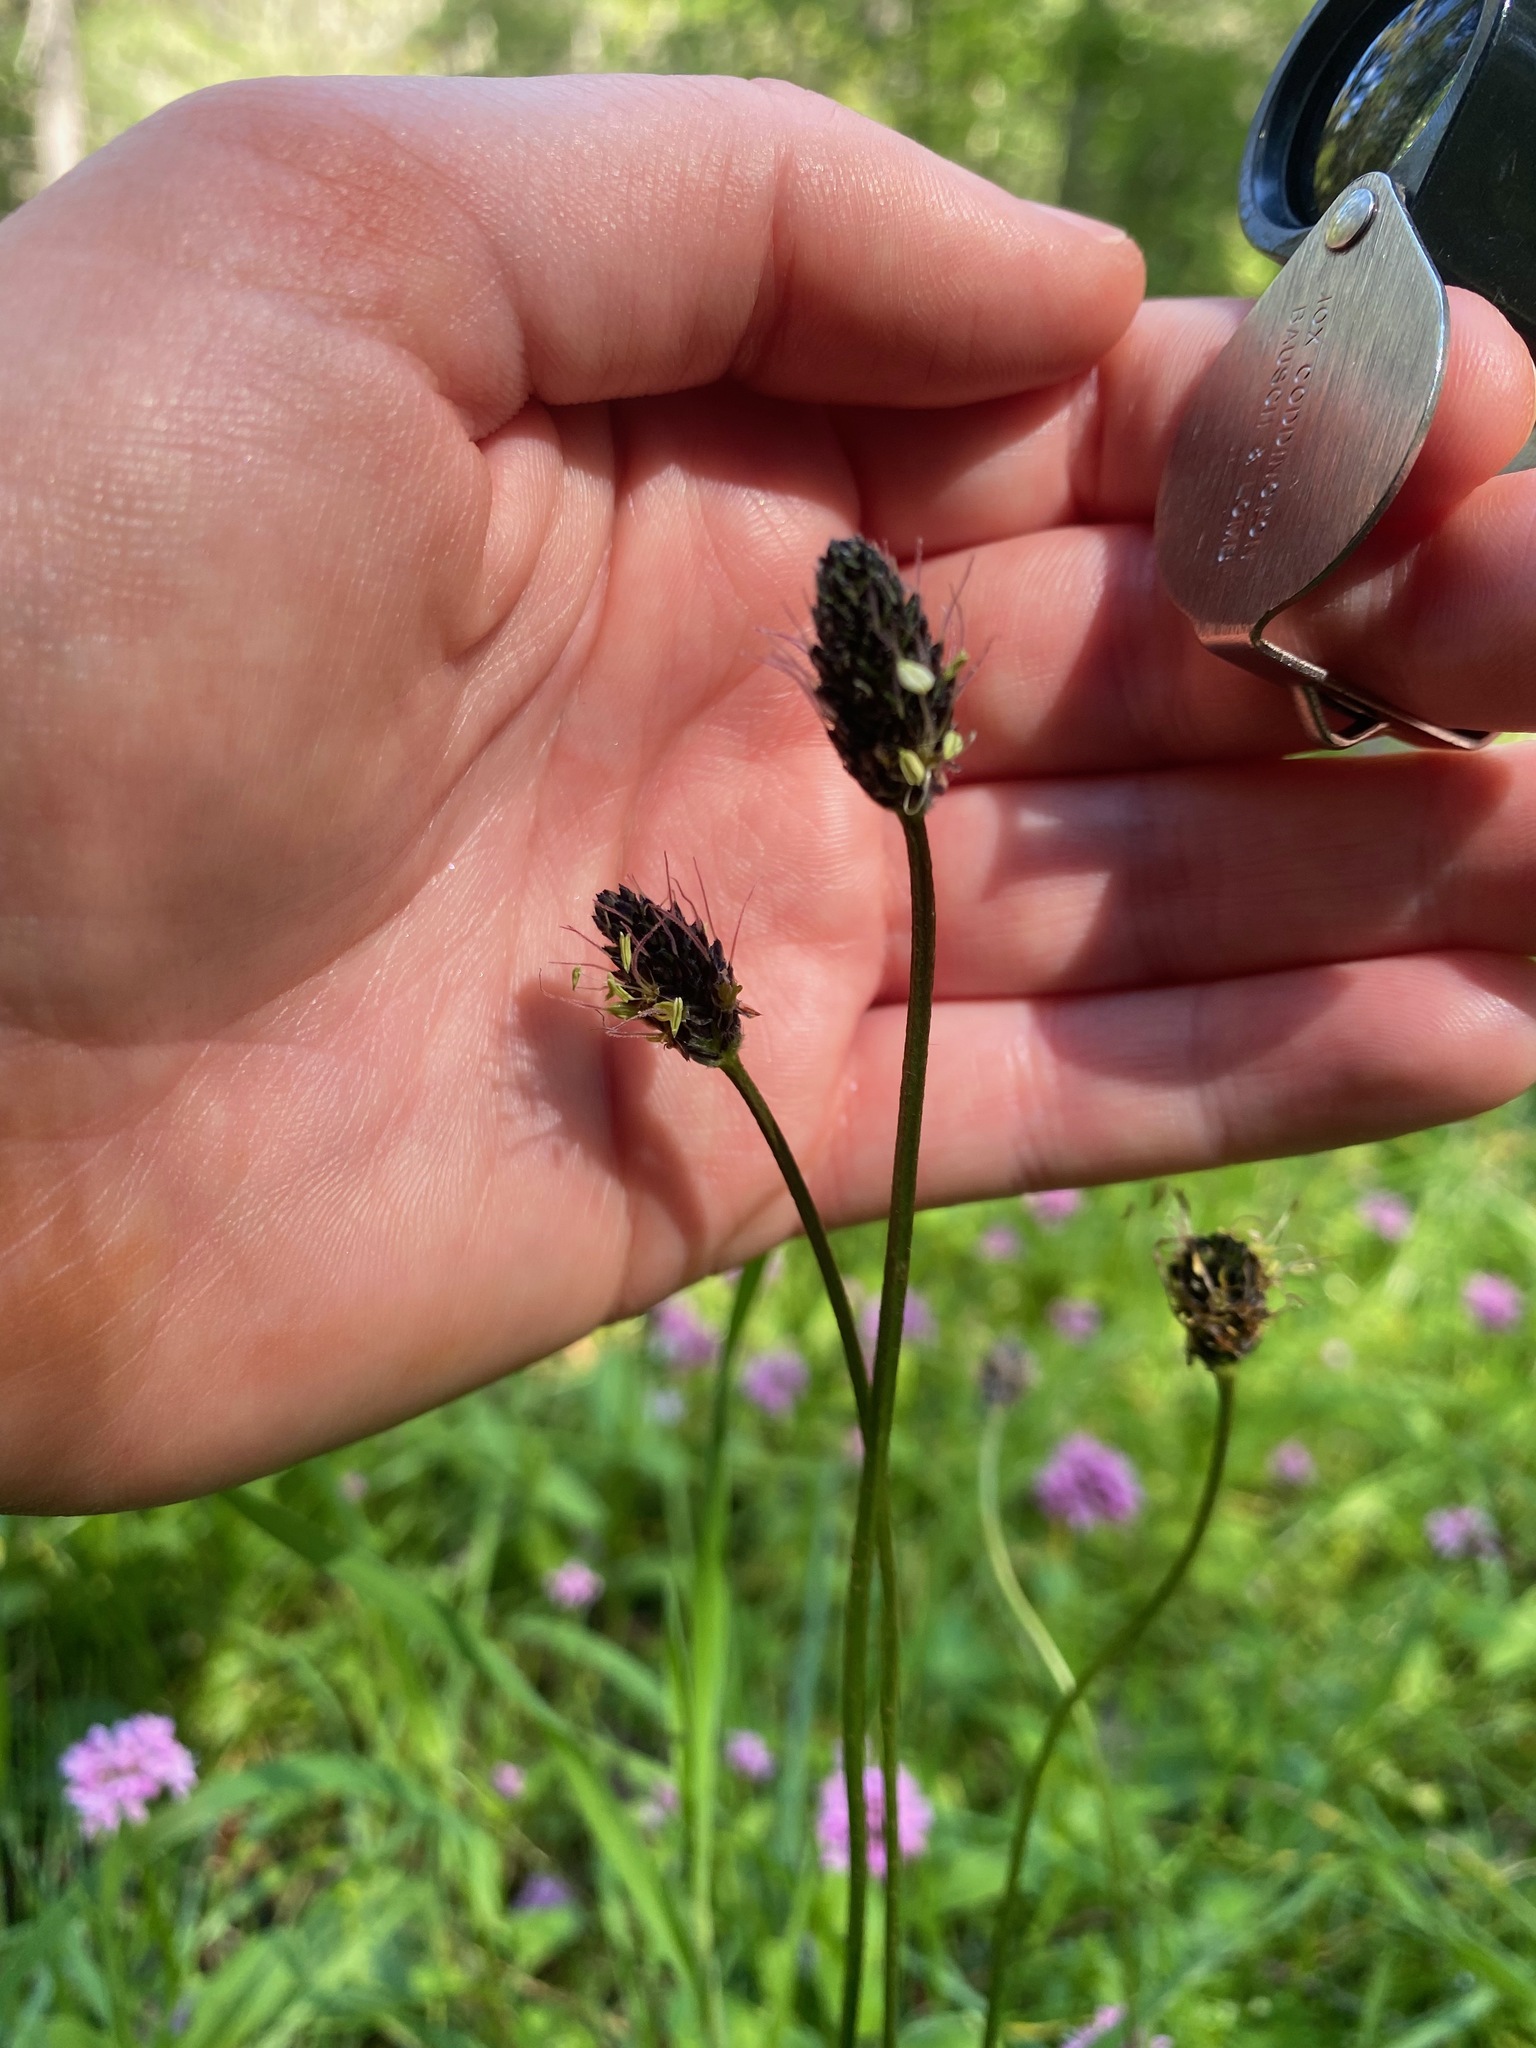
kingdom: Plantae
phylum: Tracheophyta
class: Magnoliopsida
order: Lamiales
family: Plantaginaceae
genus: Plantago
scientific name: Plantago lanceolata
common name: Ribwort plantain
